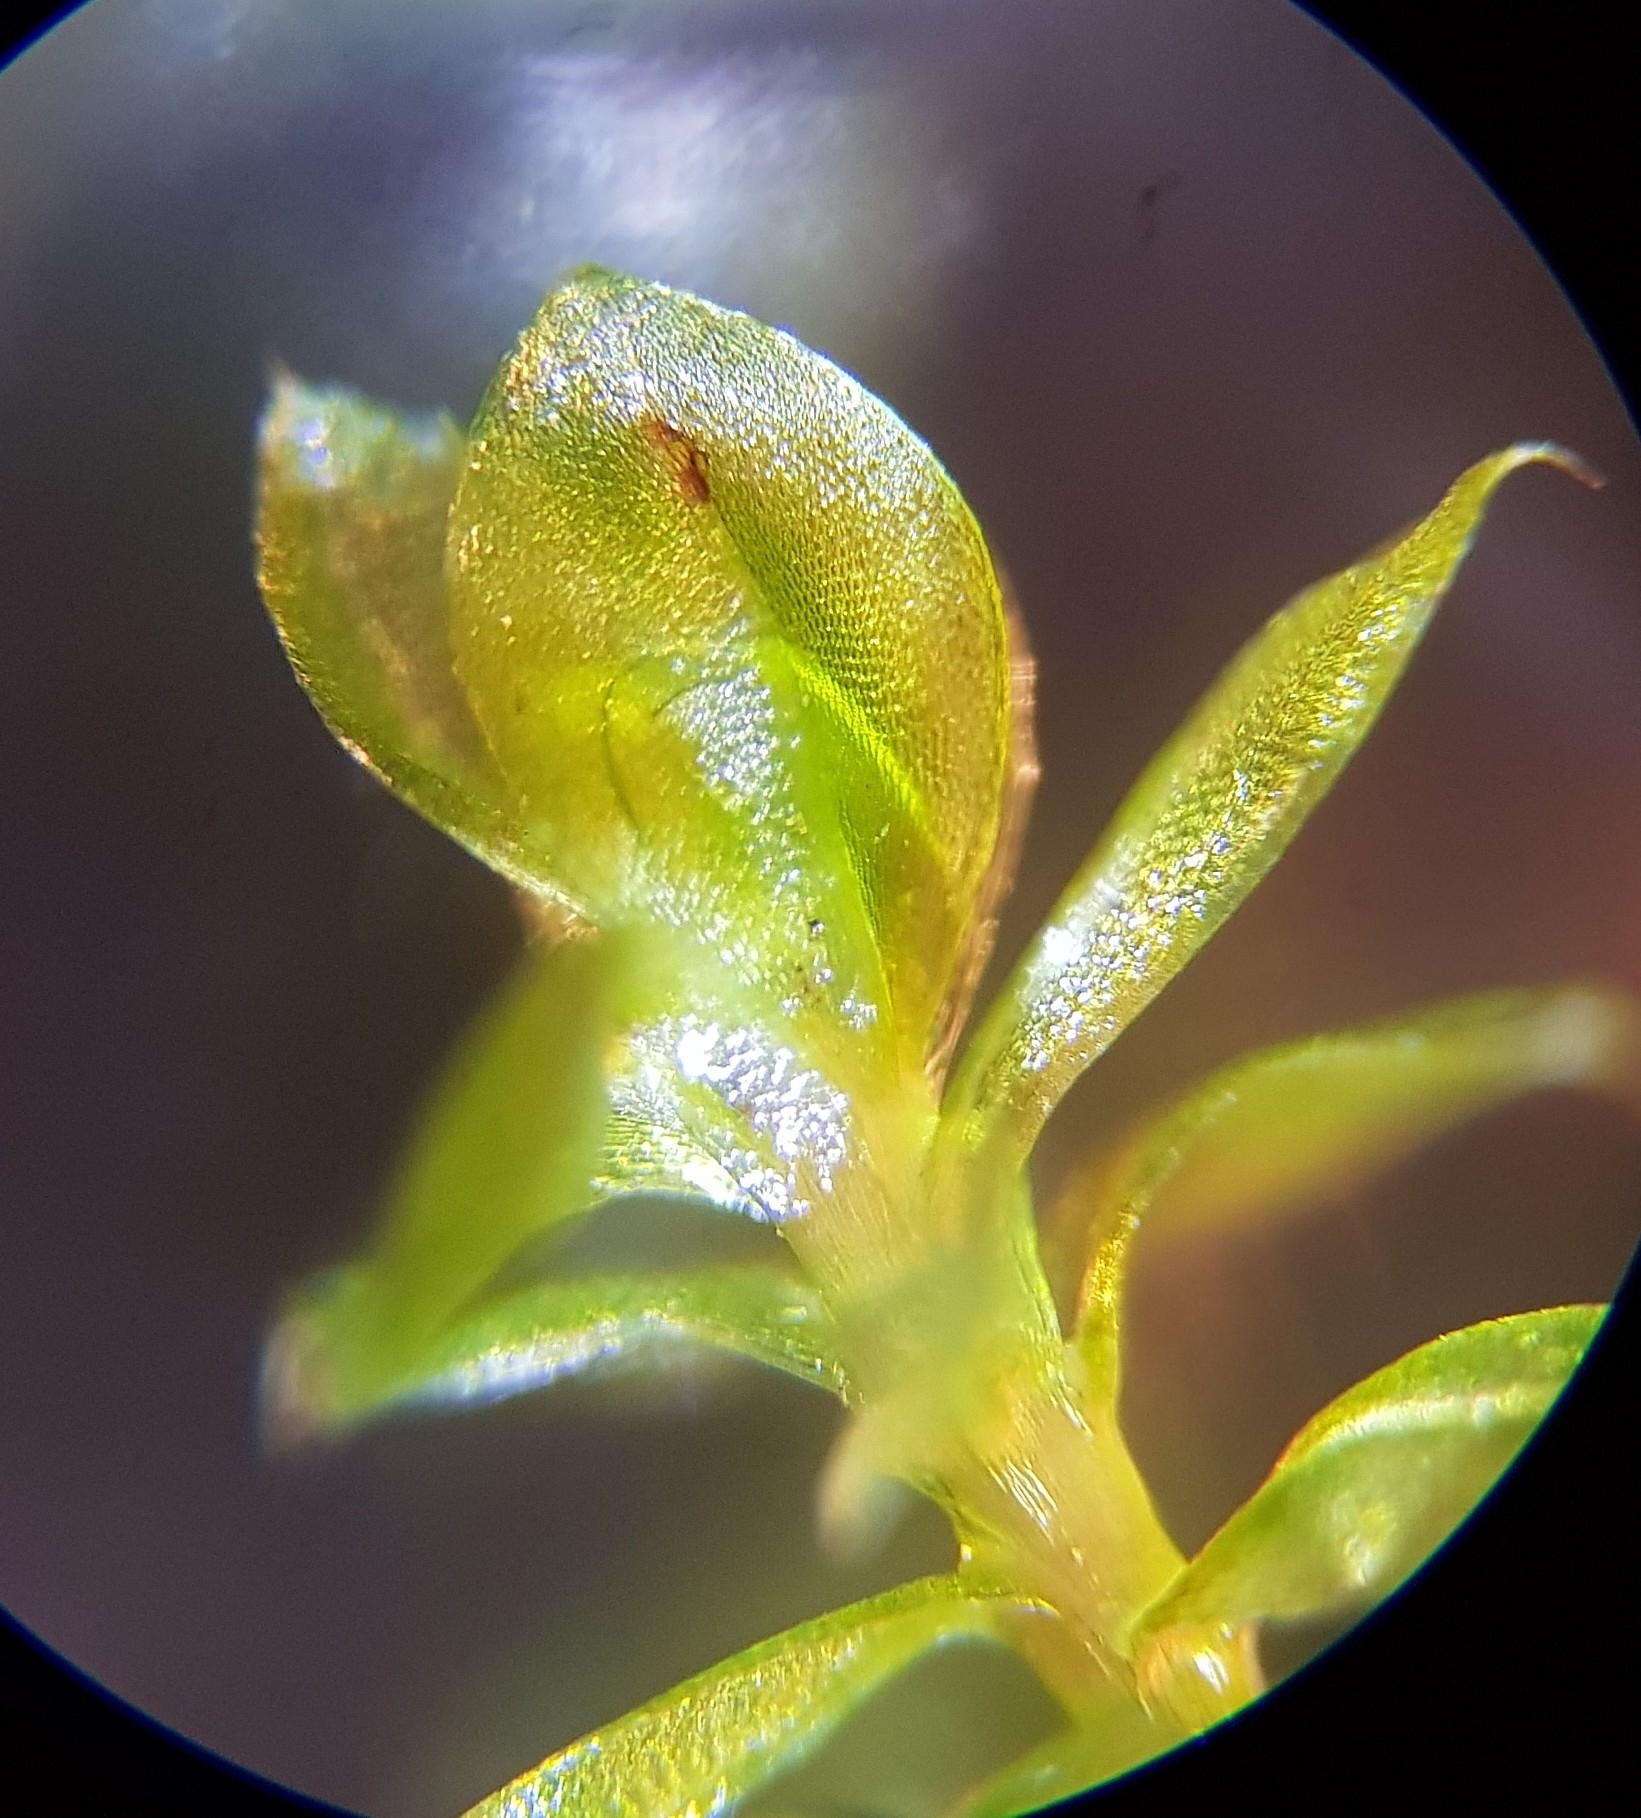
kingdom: Plantae
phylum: Bryophyta
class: Bryopsida
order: Bryales
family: Bryaceae
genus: Rosulabryum
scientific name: Rosulabryum capillare
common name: Capillary thread-moss
